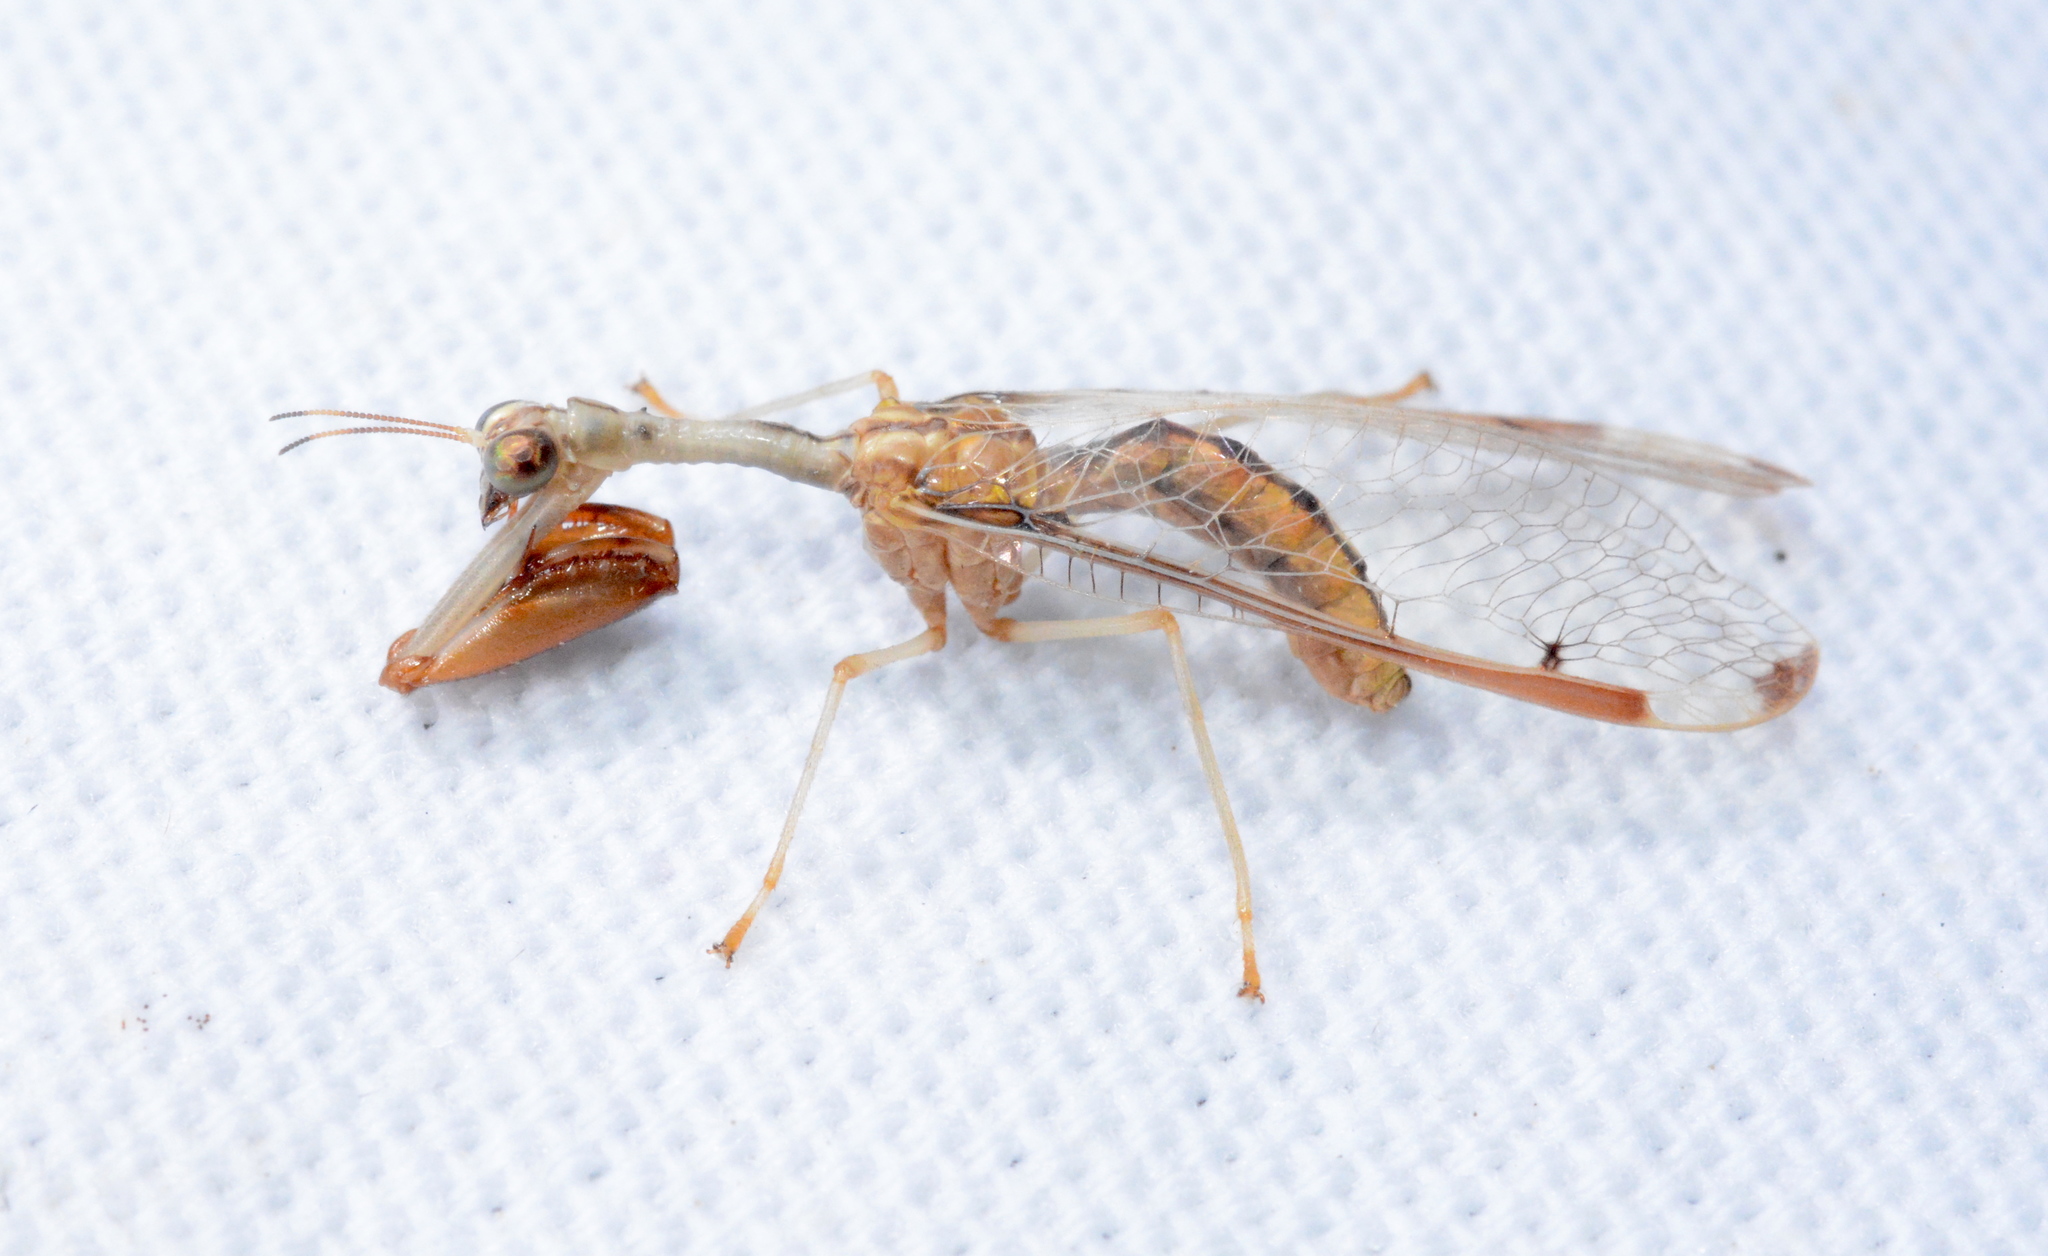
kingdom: Animalia
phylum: Arthropoda
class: Insecta
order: Neuroptera
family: Mantispidae
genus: Dicromantispa
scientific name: Dicromantispa interrupta
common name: Four-spotted mantidfly
